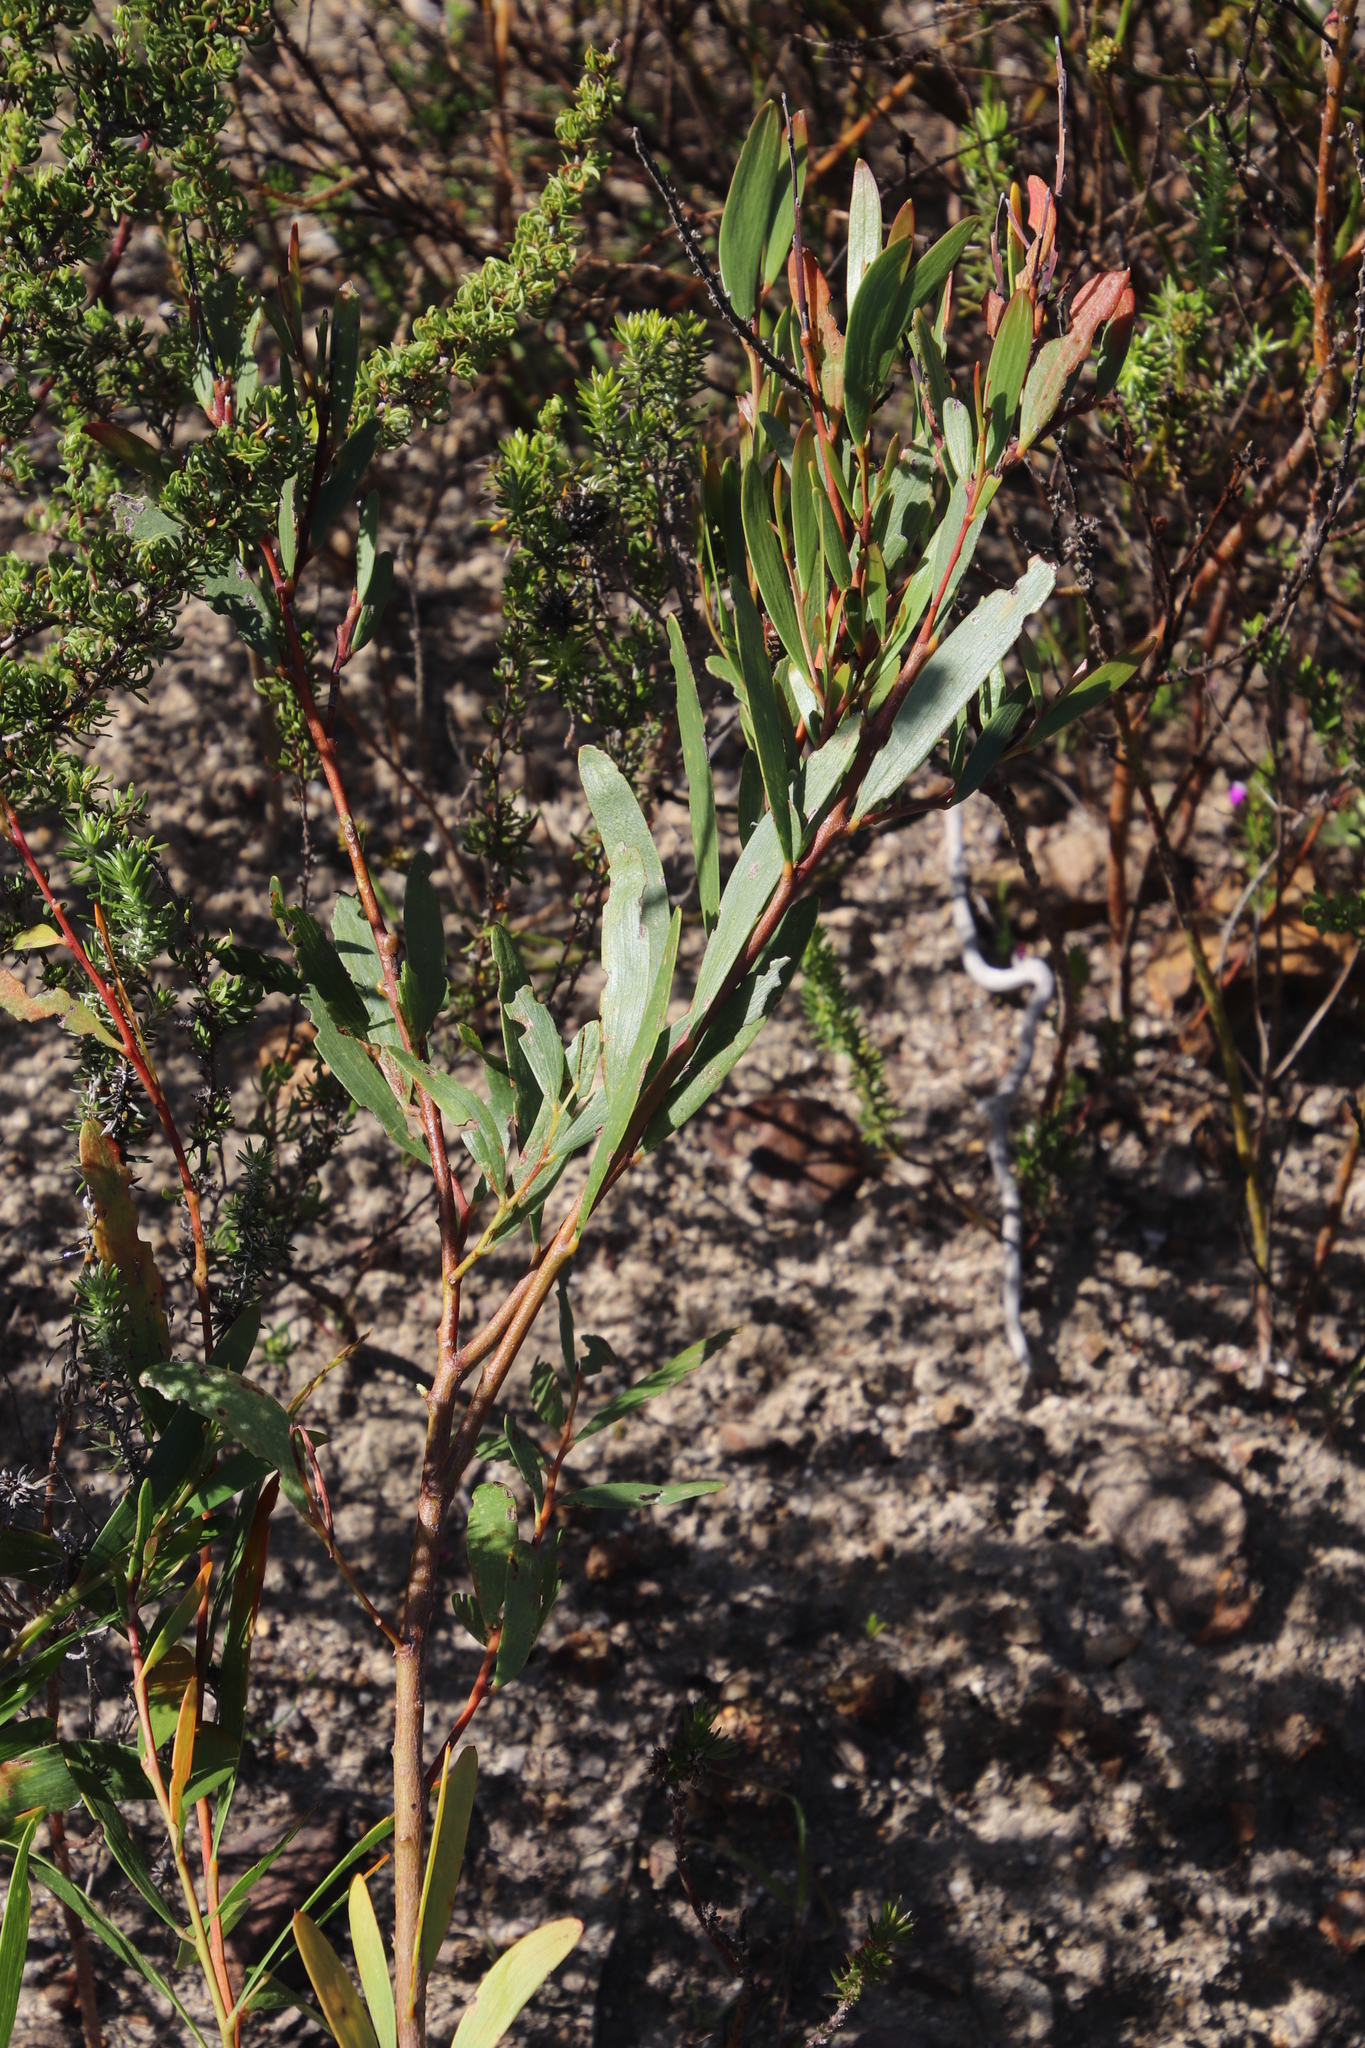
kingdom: Plantae
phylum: Tracheophyta
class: Magnoliopsida
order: Fabales
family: Fabaceae
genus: Acacia
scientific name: Acacia longifolia
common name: Sydney golden wattle
